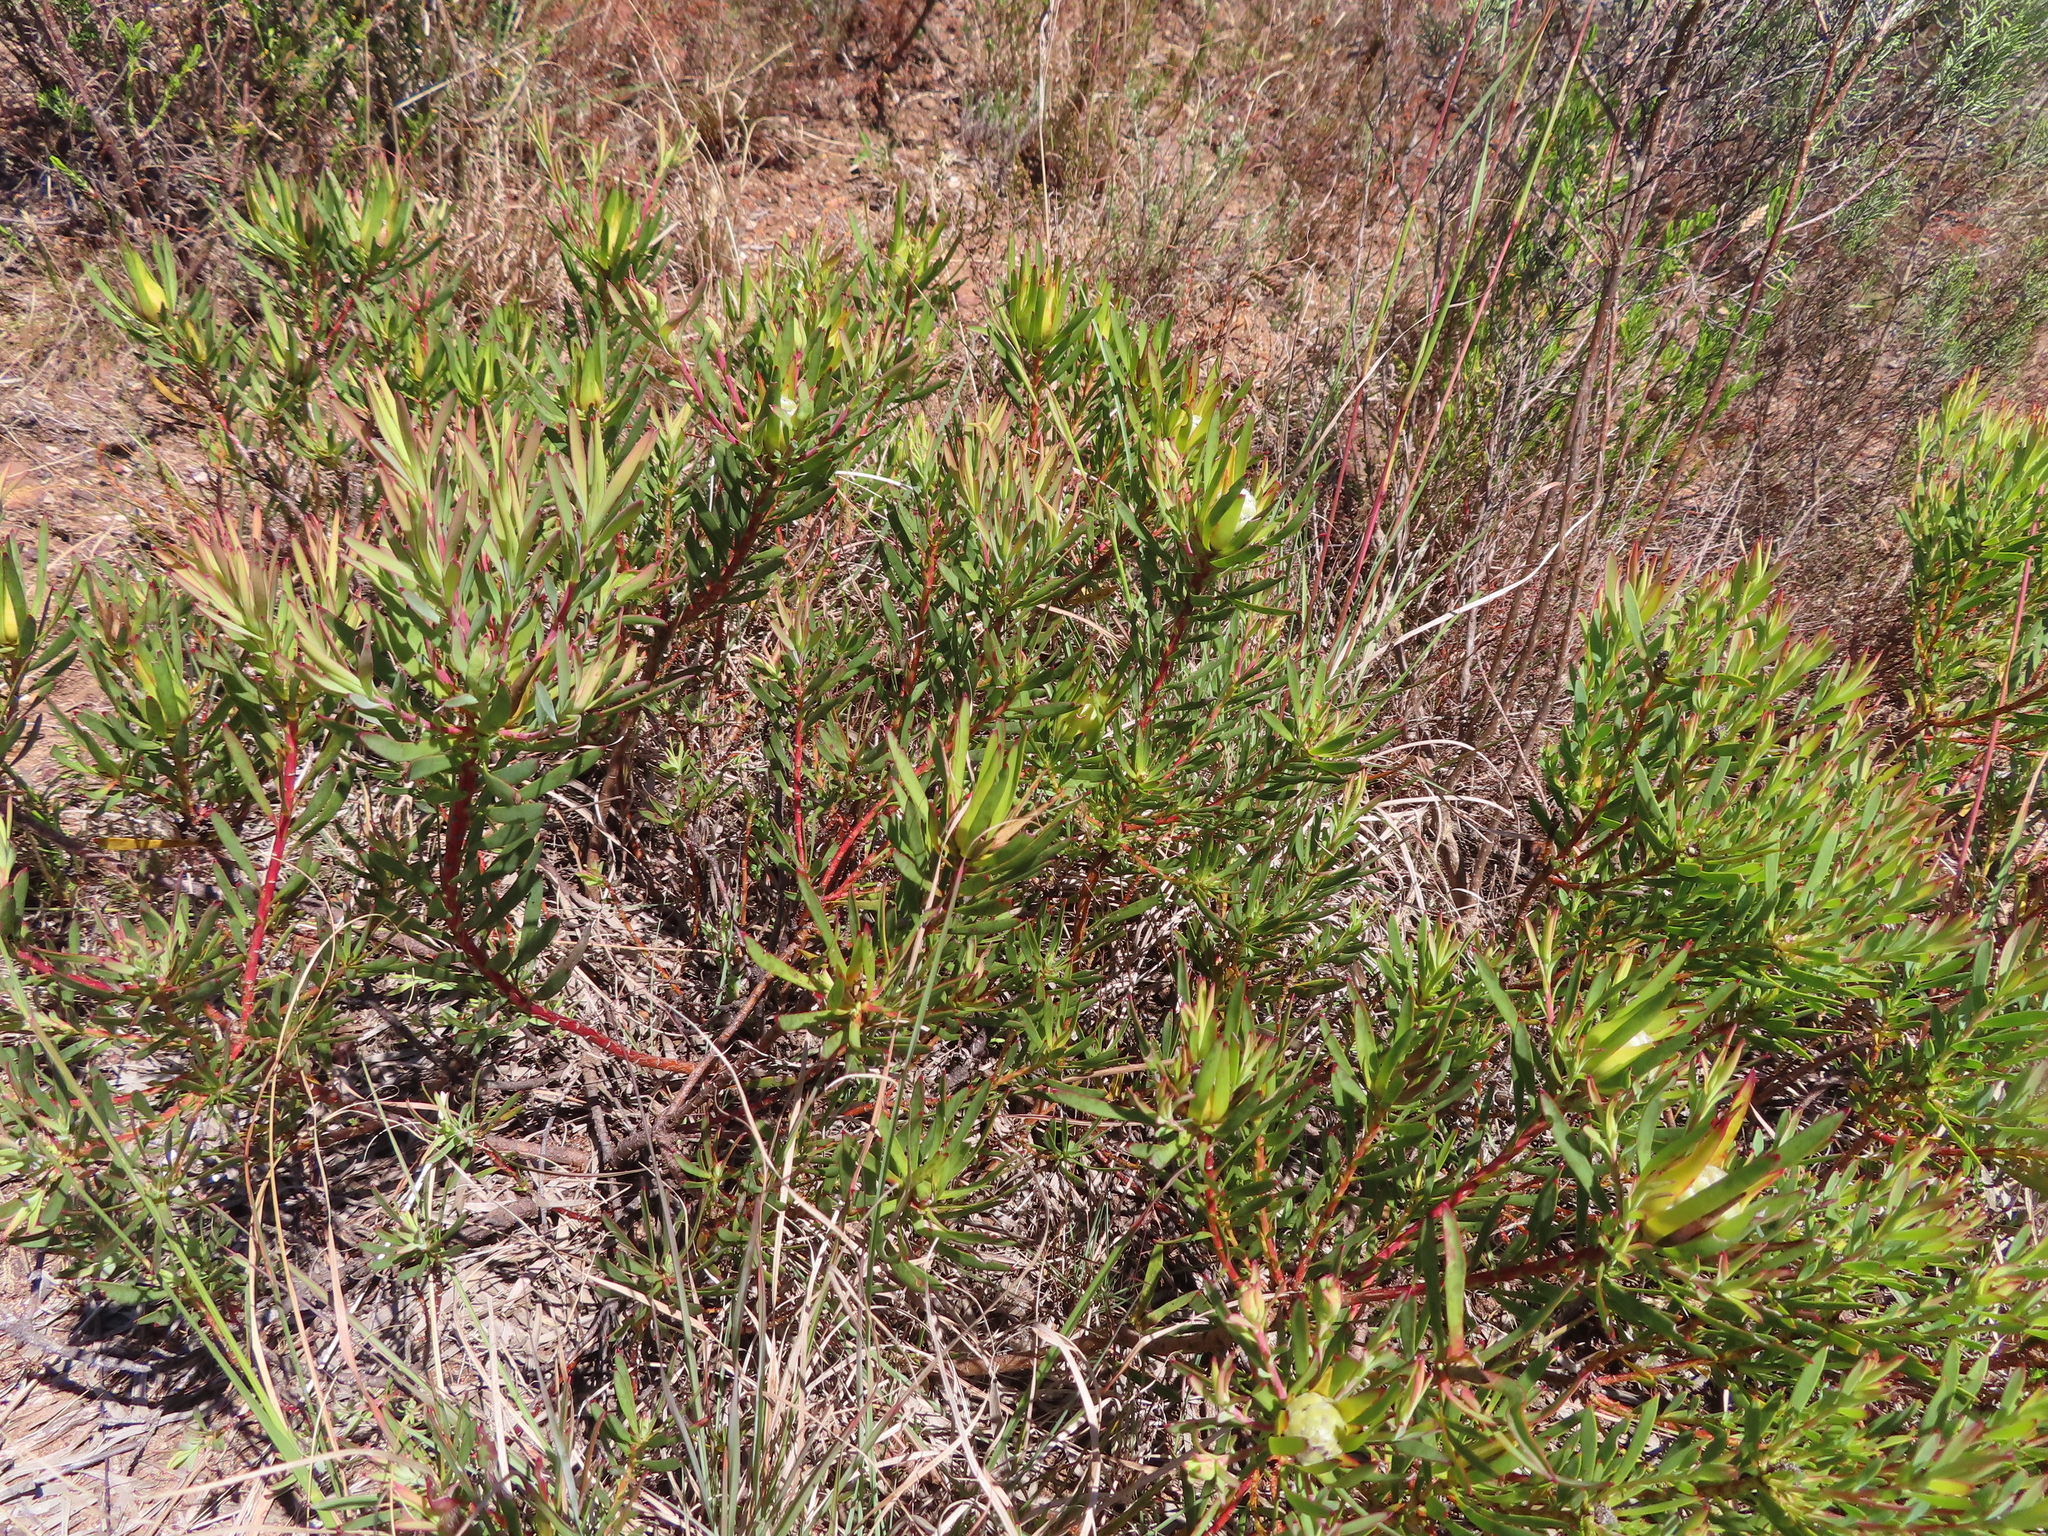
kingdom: Plantae
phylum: Tracheophyta
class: Magnoliopsida
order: Proteales
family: Proteaceae
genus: Leucadendron
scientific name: Leucadendron salignum
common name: Common sunshine conebush
